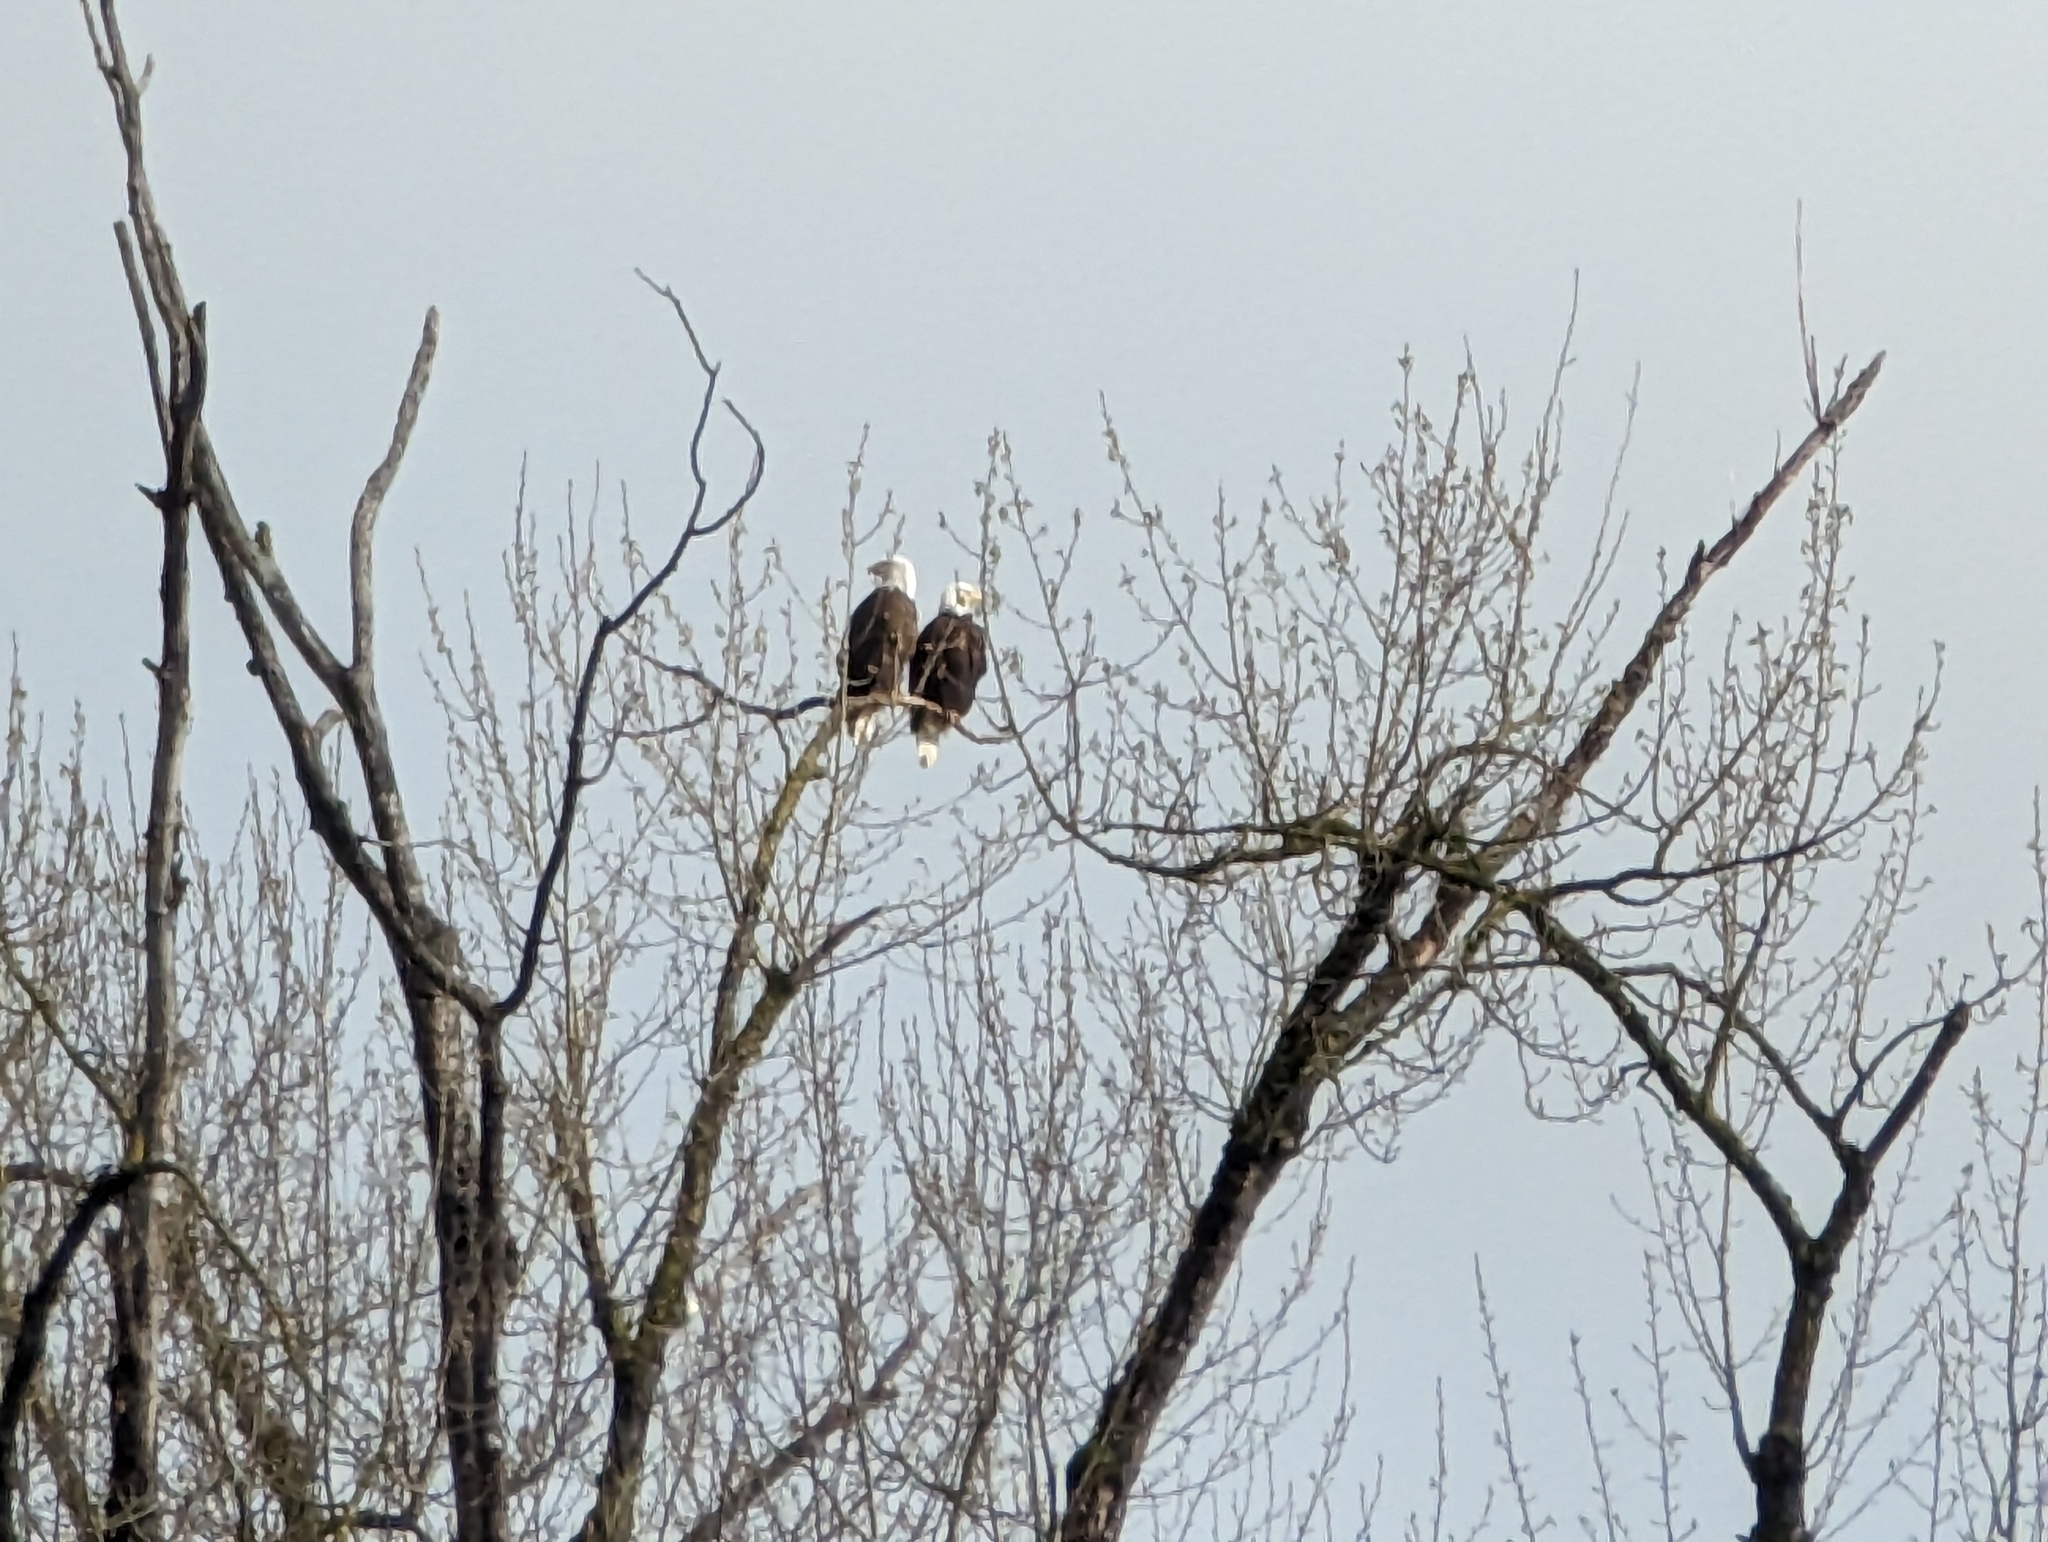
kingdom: Animalia
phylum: Chordata
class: Aves
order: Accipitriformes
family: Accipitridae
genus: Haliaeetus
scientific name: Haliaeetus leucocephalus
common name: Bald eagle
